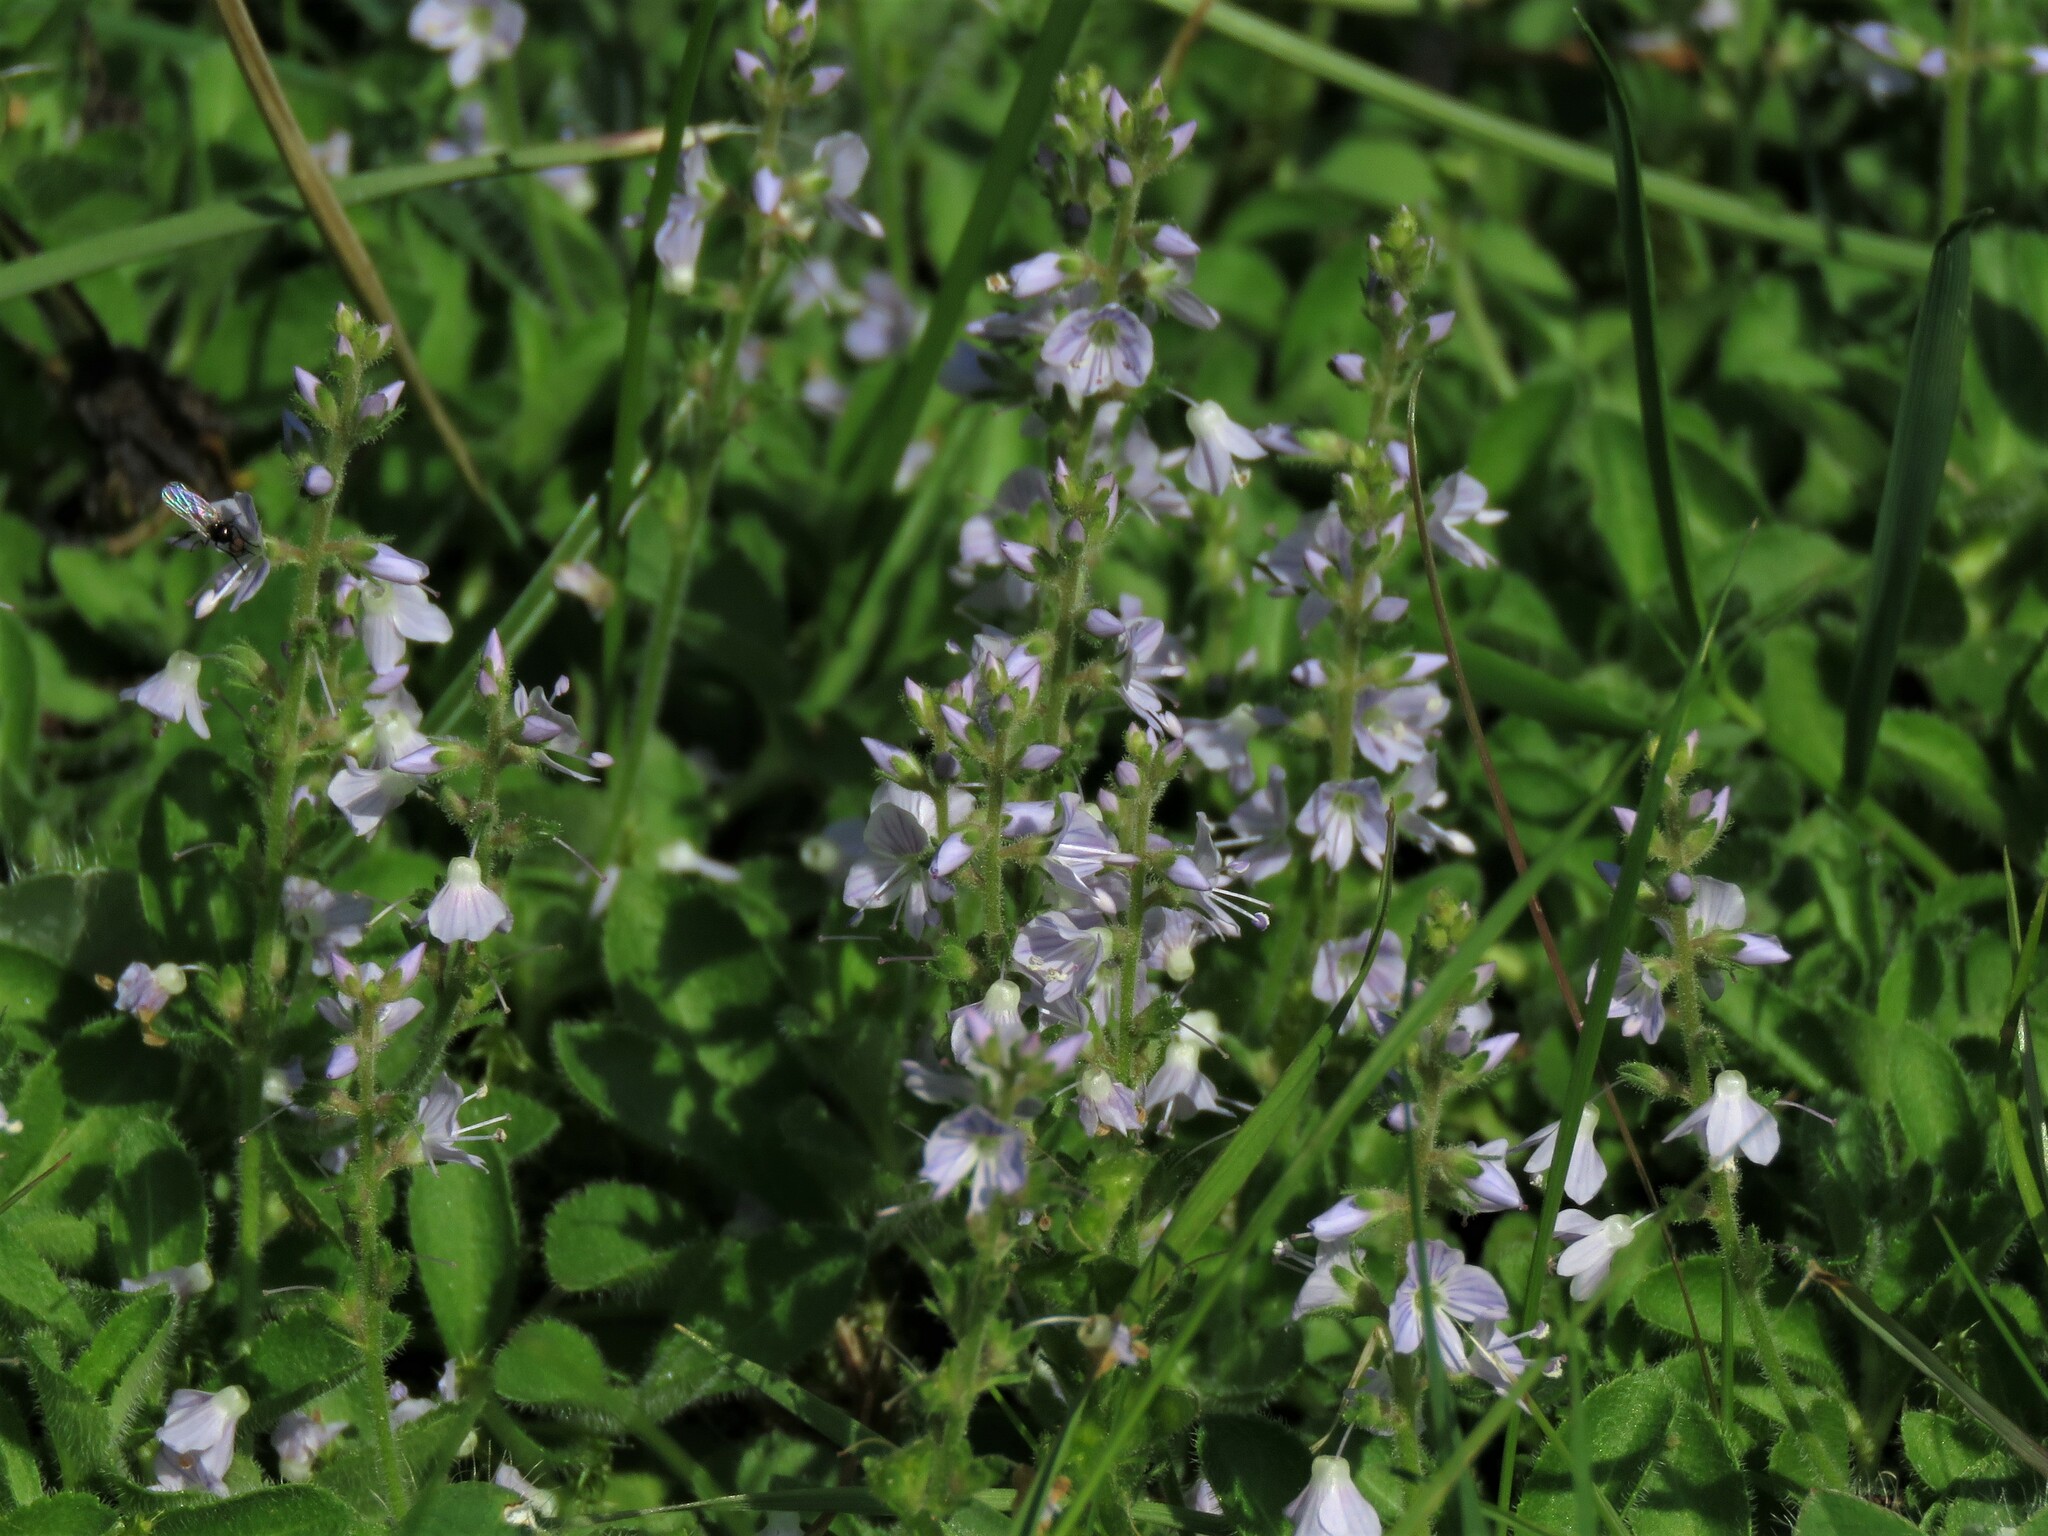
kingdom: Plantae
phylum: Tracheophyta
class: Magnoliopsida
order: Lamiales
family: Plantaginaceae
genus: Veronica
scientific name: Veronica officinalis
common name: Common speedwell
